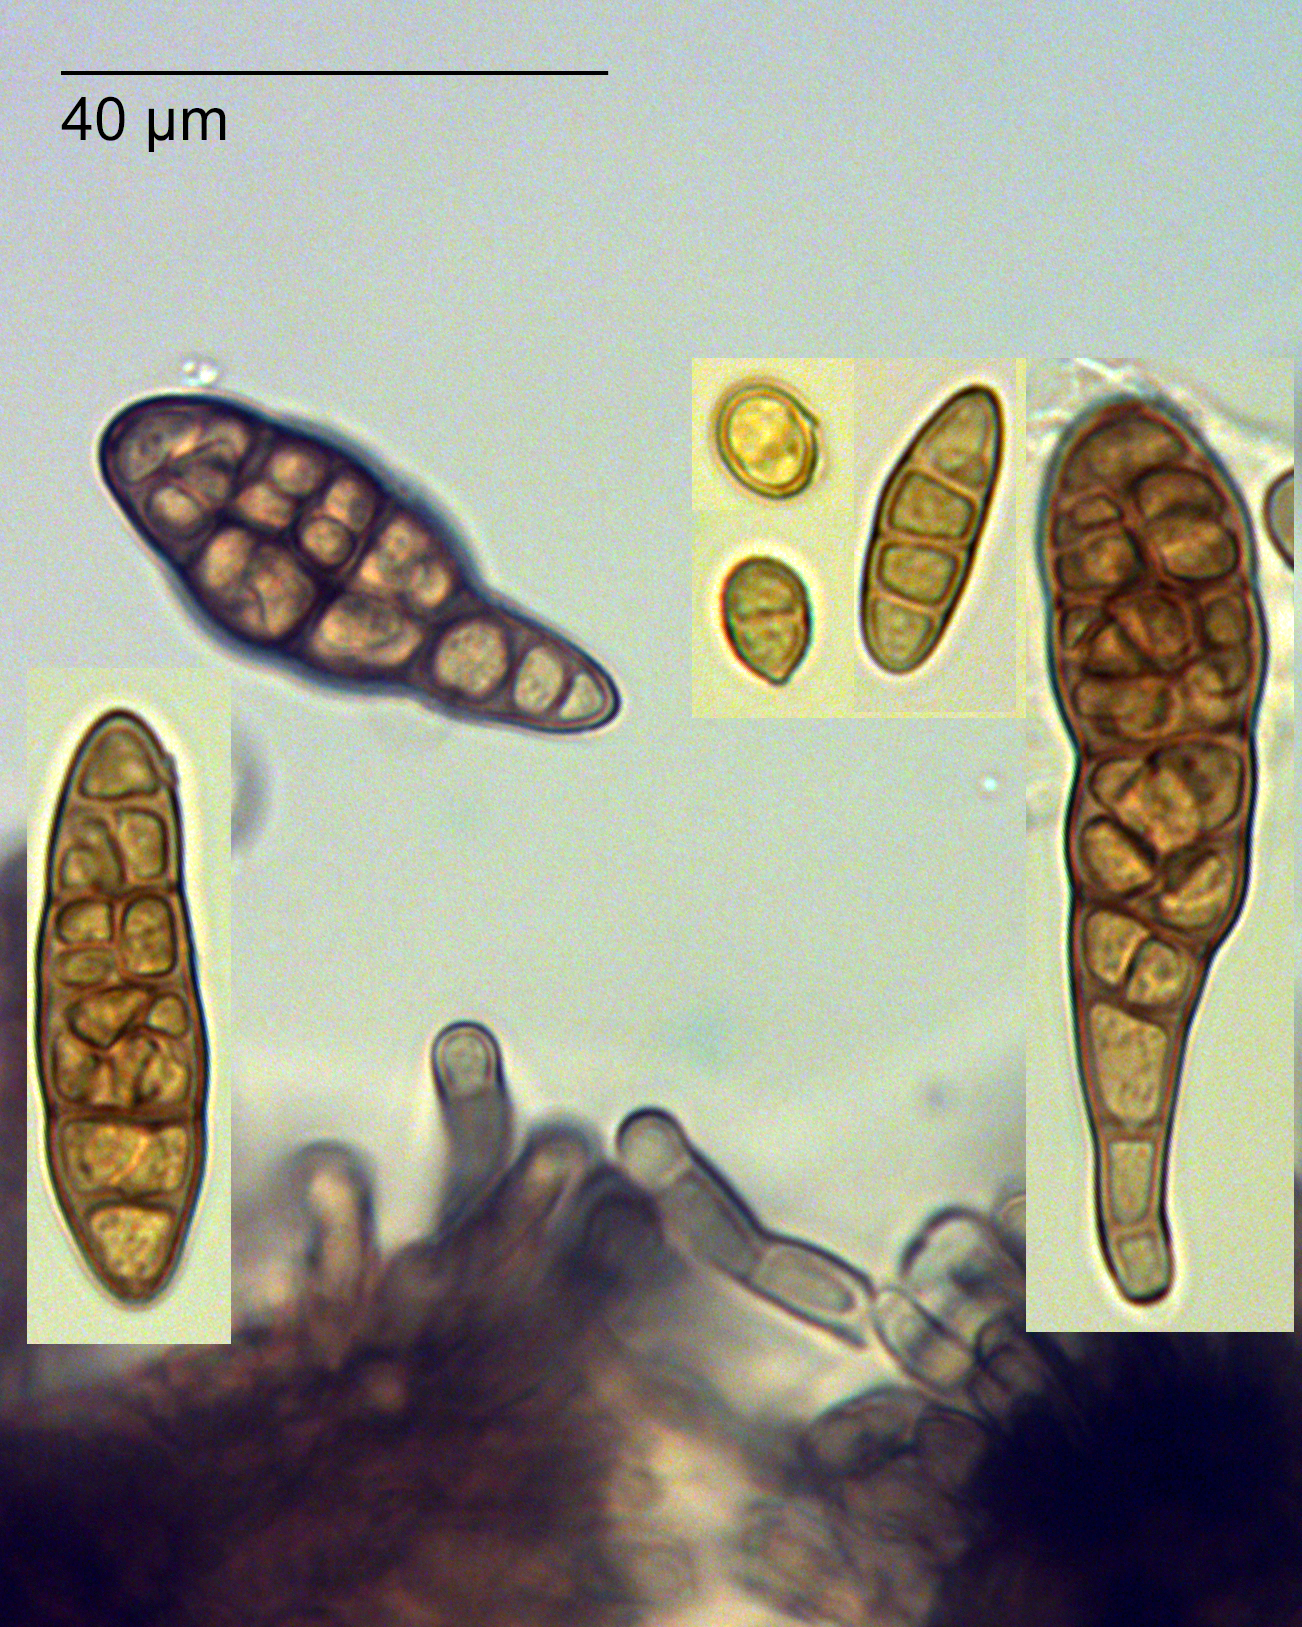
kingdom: Fungi
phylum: Ascomycota
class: Dothideomycetes
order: Pleosporales
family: Pleosporaceae
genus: Alternaria
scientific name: Alternaria alternata
